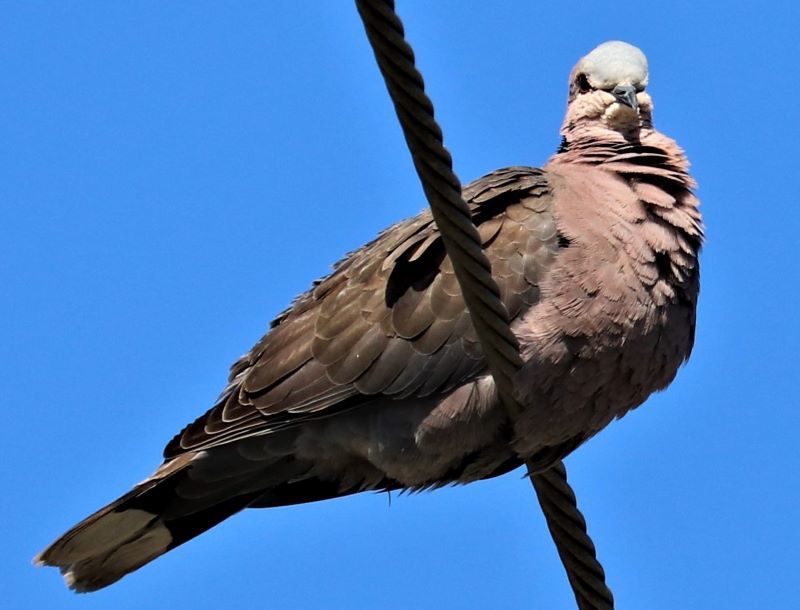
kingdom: Animalia
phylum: Chordata
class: Aves
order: Columbiformes
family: Columbidae
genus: Streptopelia
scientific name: Streptopelia semitorquata
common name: Red-eyed dove
